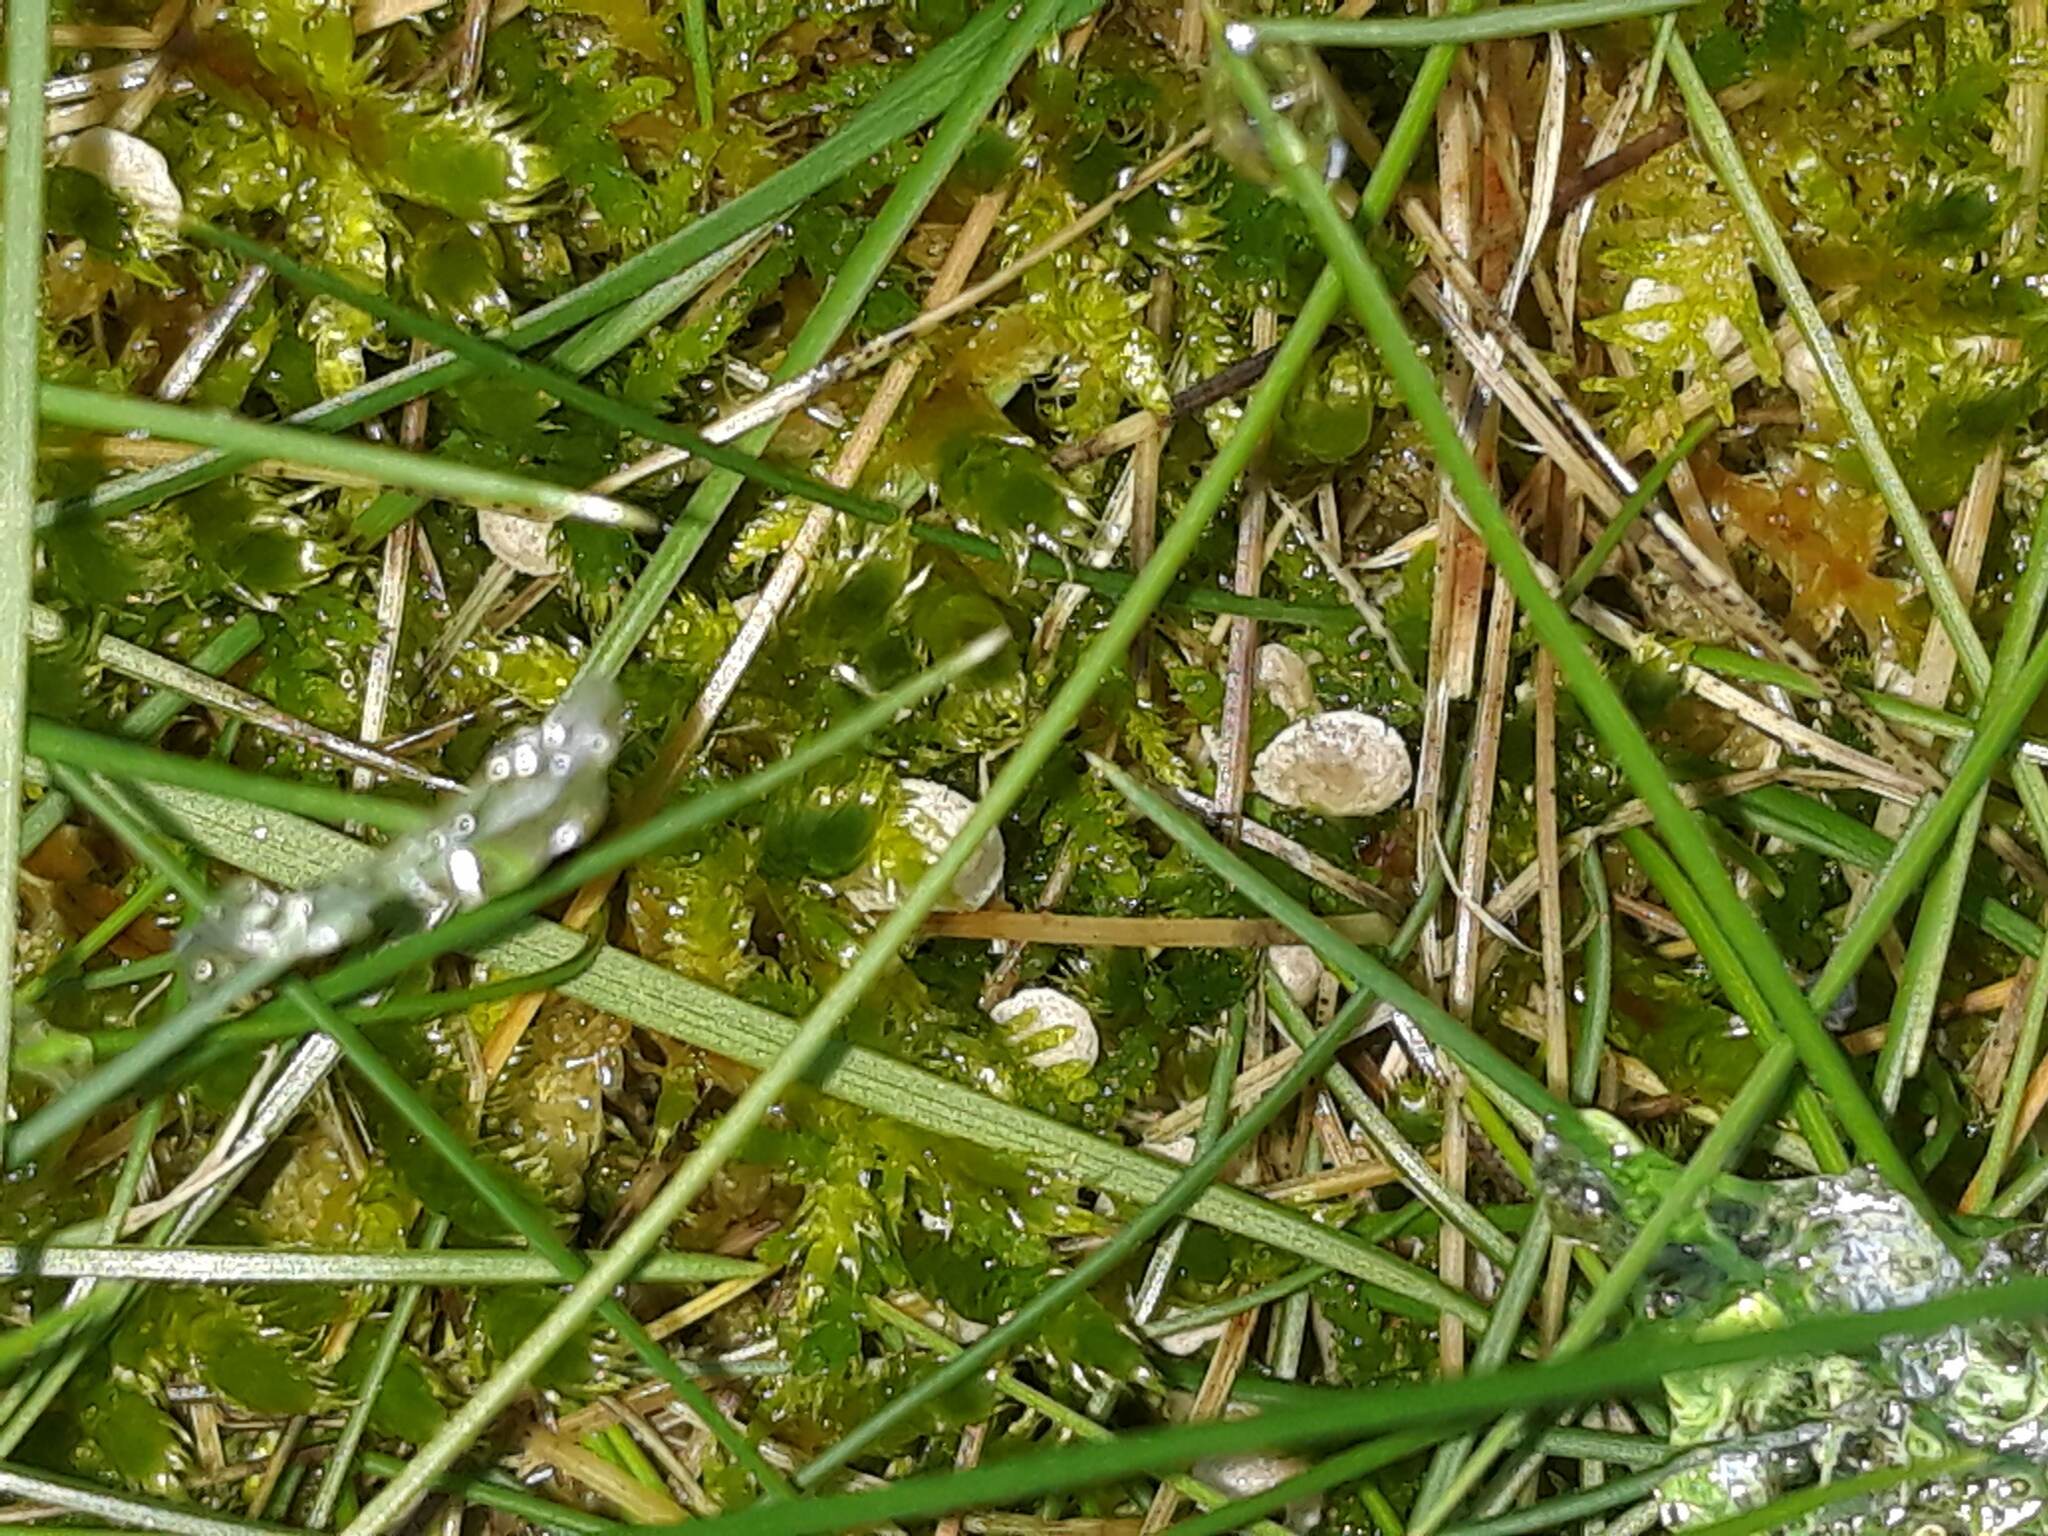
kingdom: Fungi
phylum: Basidiomycota
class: Agaricomycetes
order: Agaricales
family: Hygrophoraceae
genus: Arrhenia
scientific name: Arrhenia retiruga
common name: Small moss oysterling
